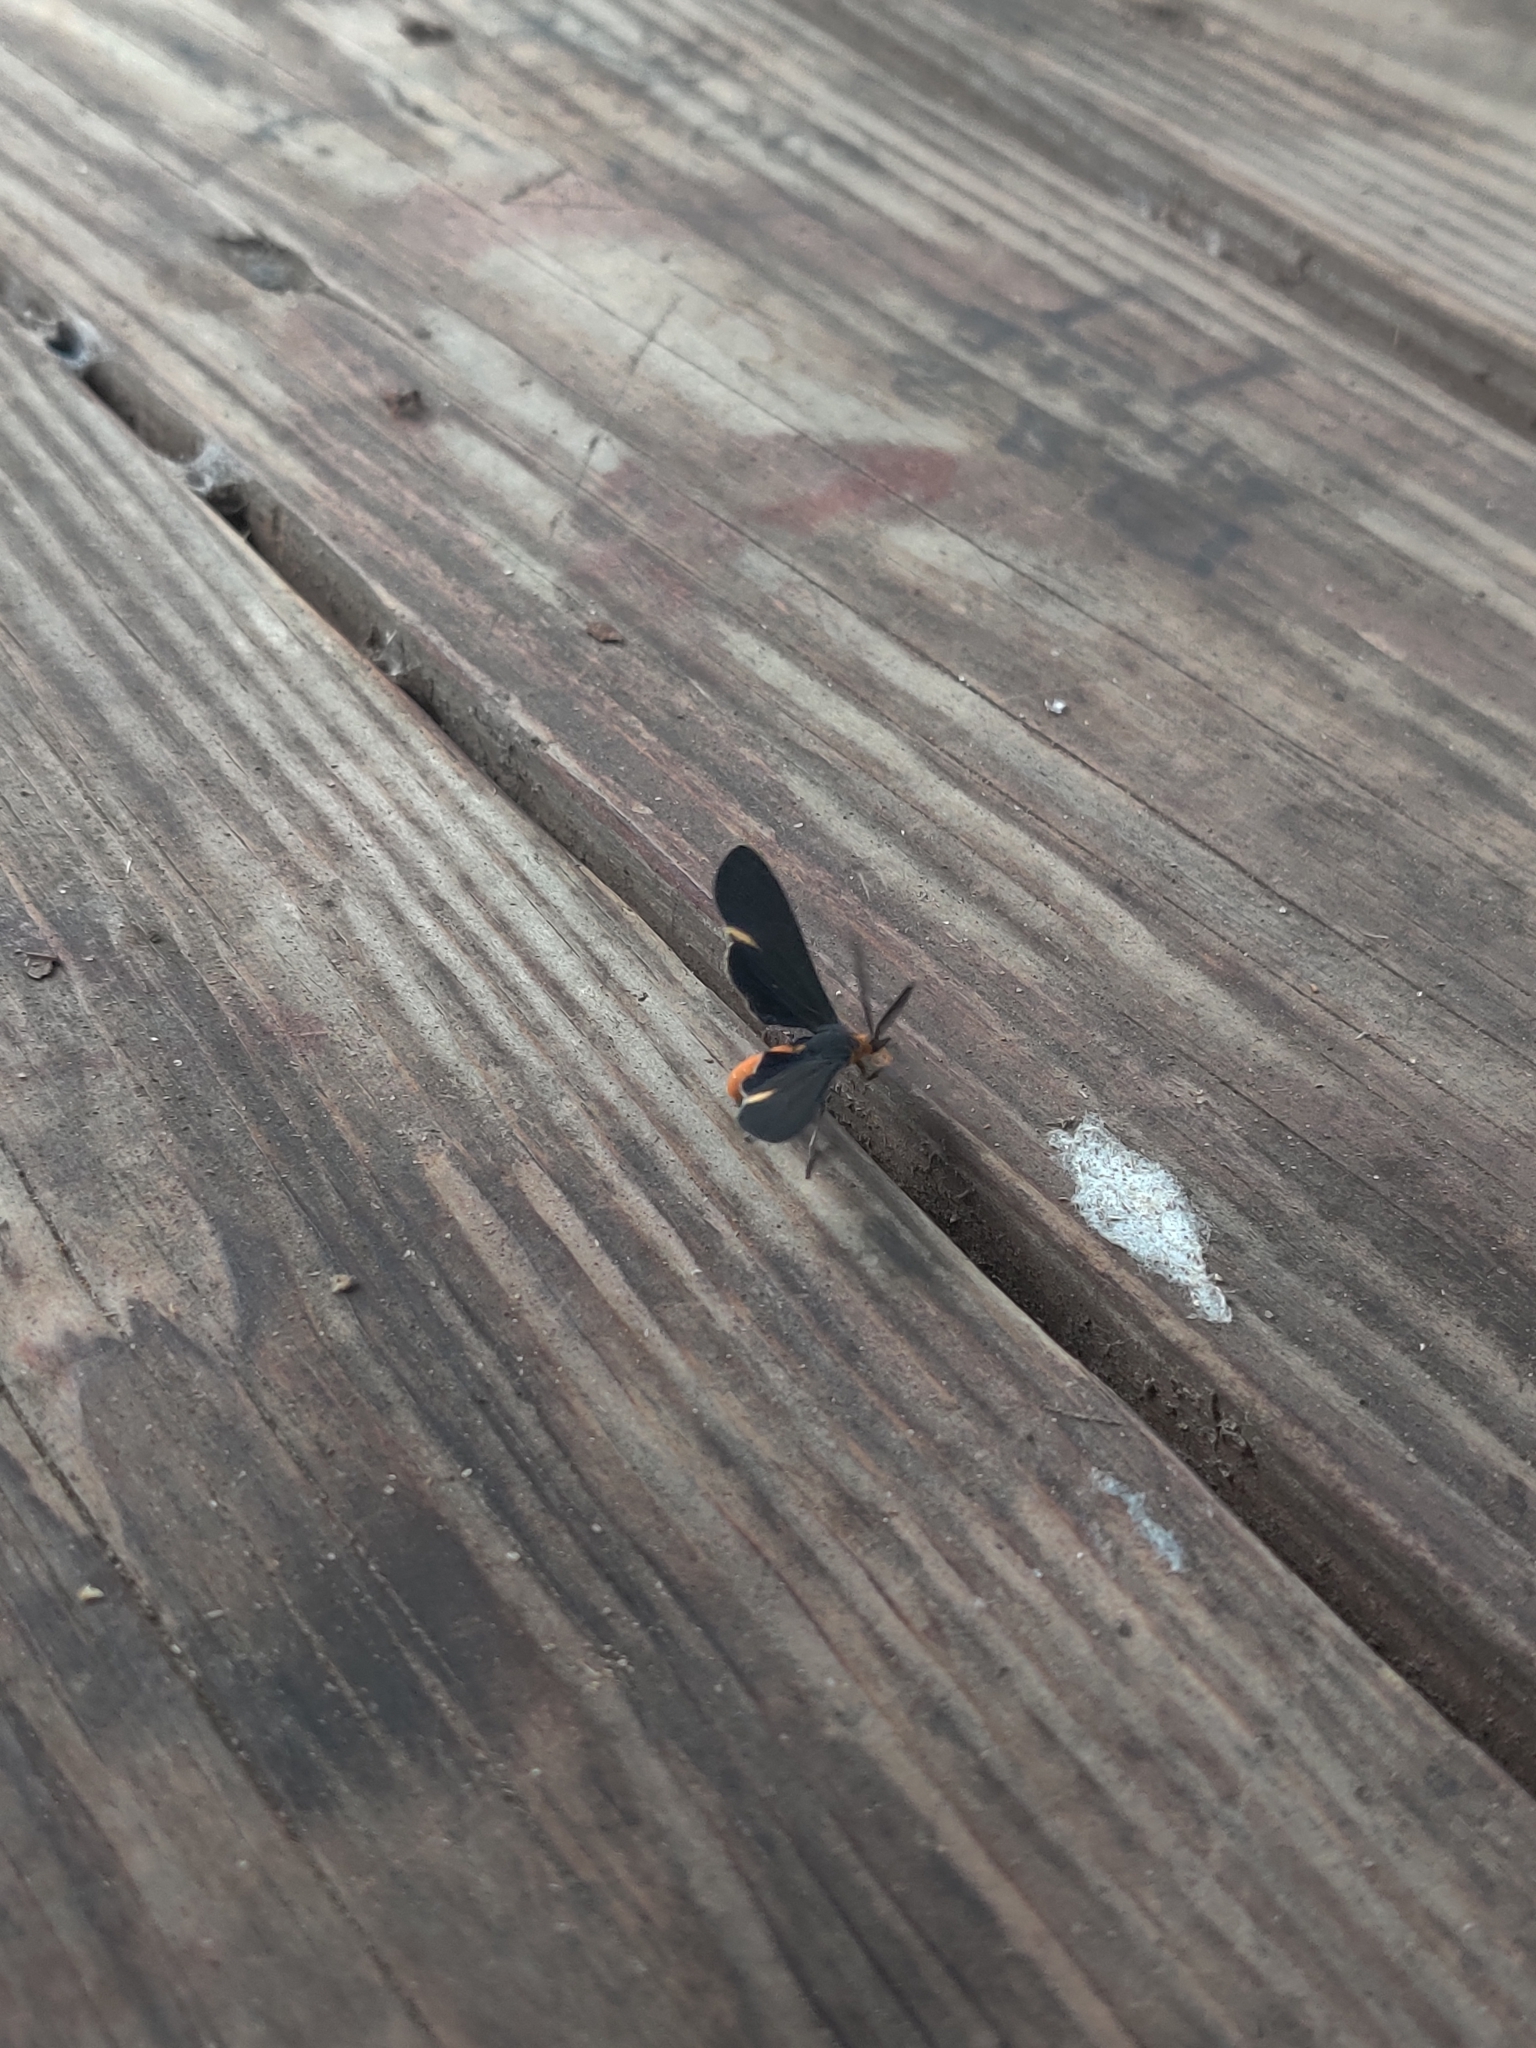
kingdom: Animalia
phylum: Arthropoda
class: Insecta
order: Lepidoptera
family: Erebidae
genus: Dahana
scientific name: Dahana atripennis
